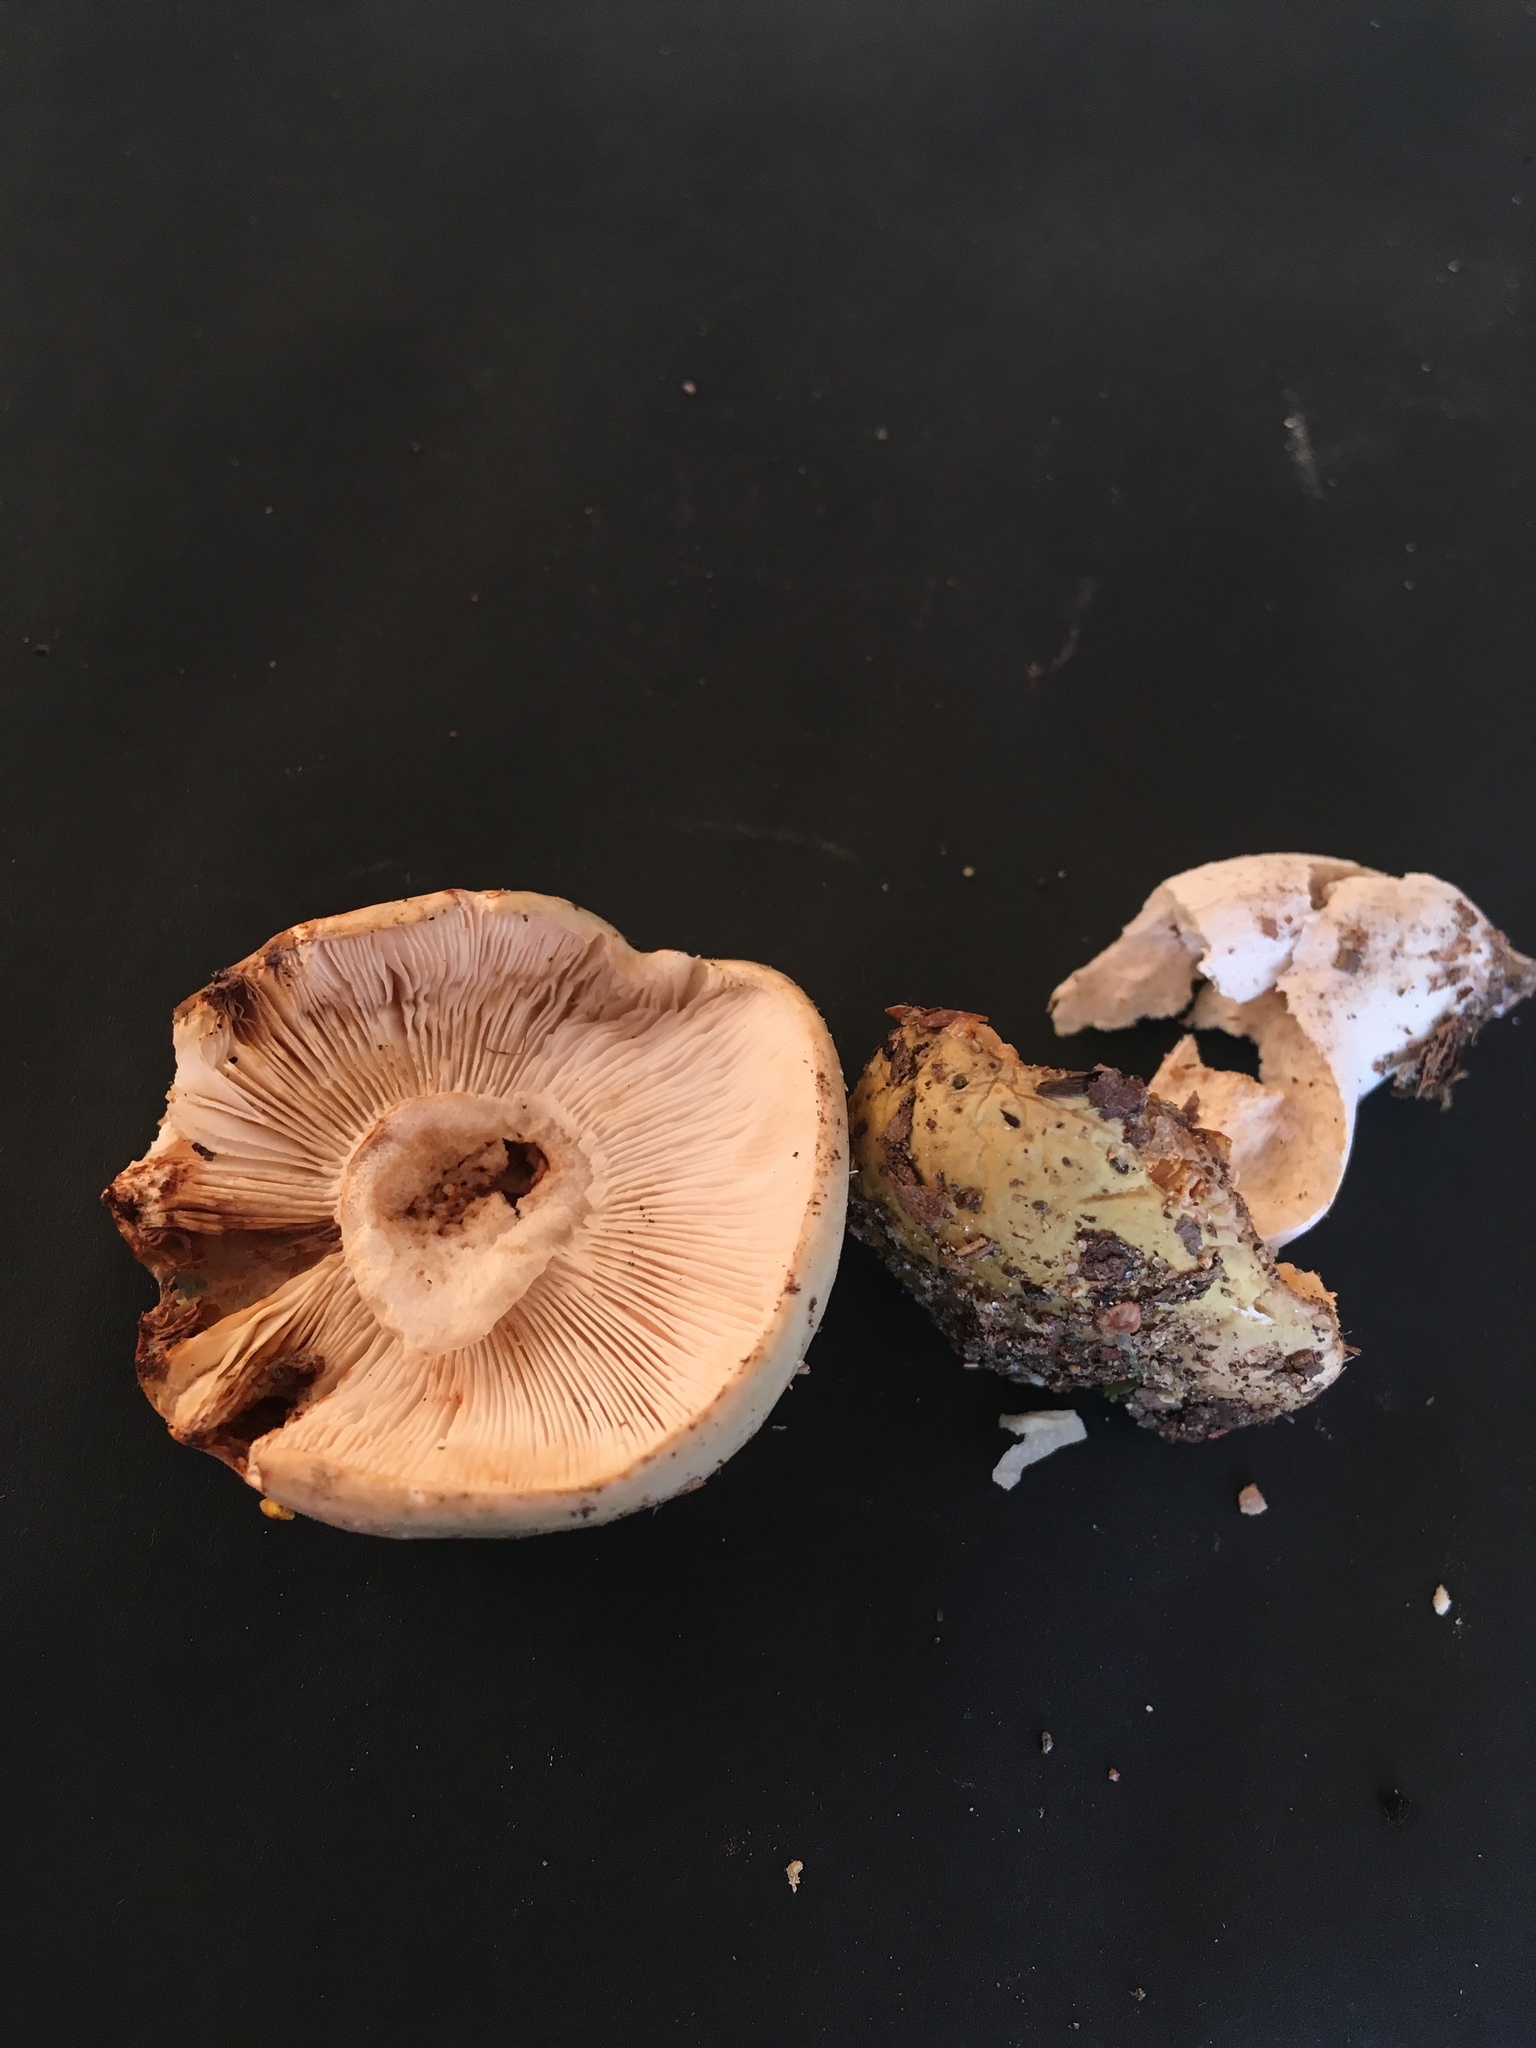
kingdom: Fungi
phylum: Basidiomycota
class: Agaricomycetes
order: Russulales
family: Russulaceae
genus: Russula
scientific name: Russula cyanoxantha
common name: Charcoal burner
